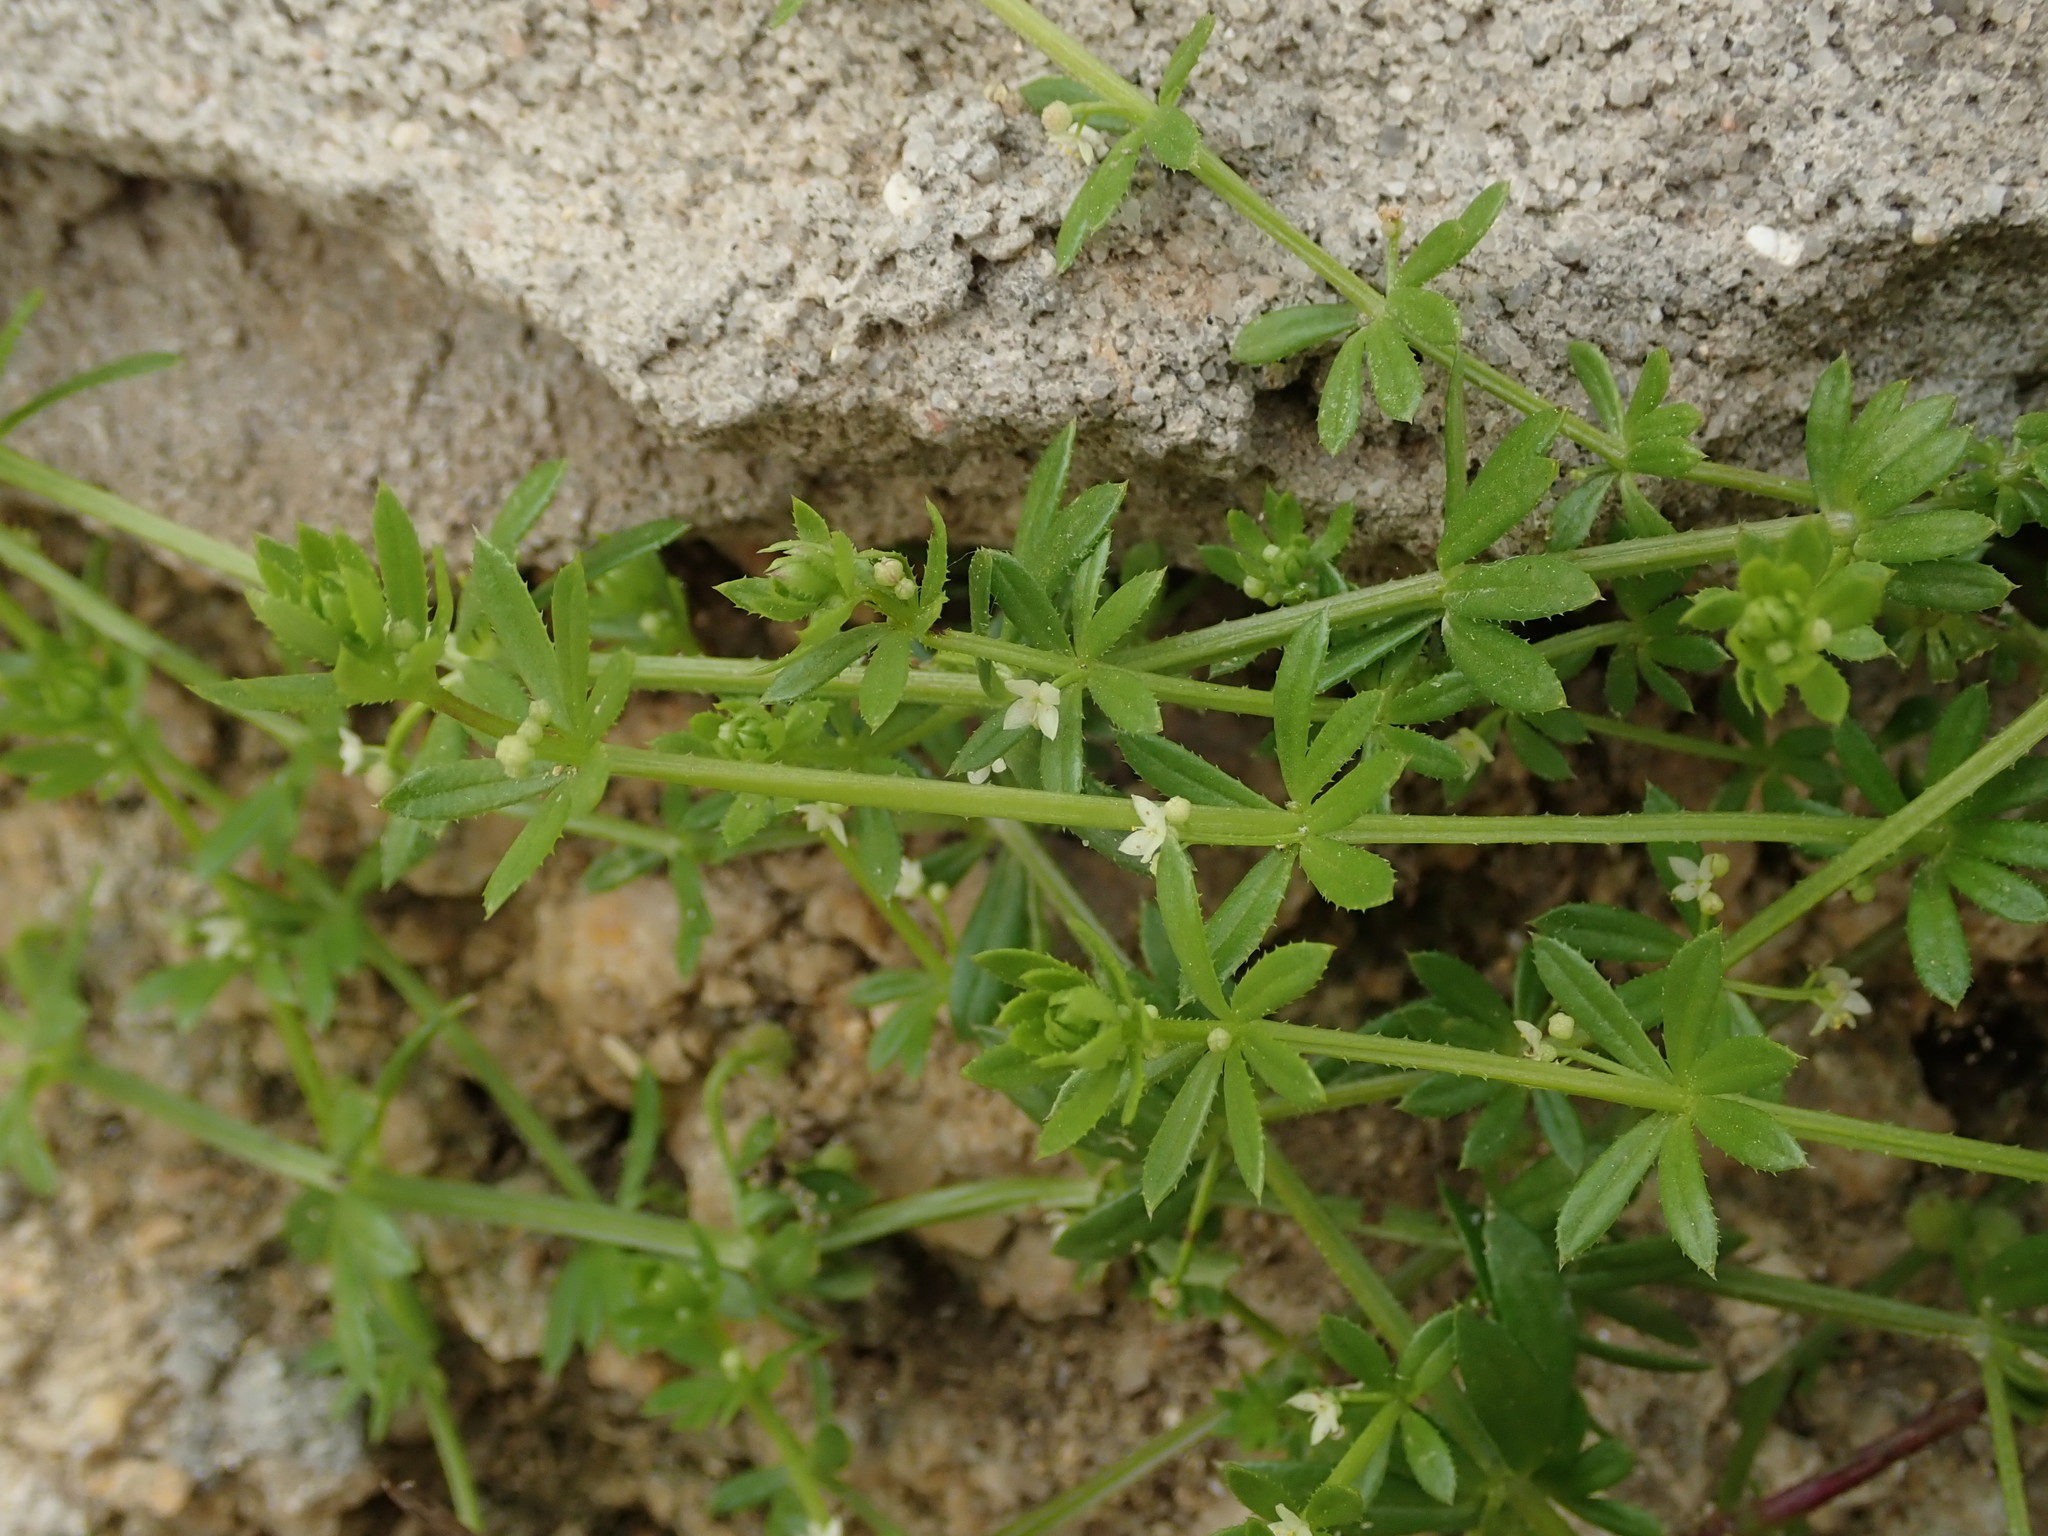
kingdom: Plantae
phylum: Tracheophyta
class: Magnoliopsida
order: Gentianales
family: Rubiaceae
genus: Galium
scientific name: Galium aparine
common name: Cleavers
